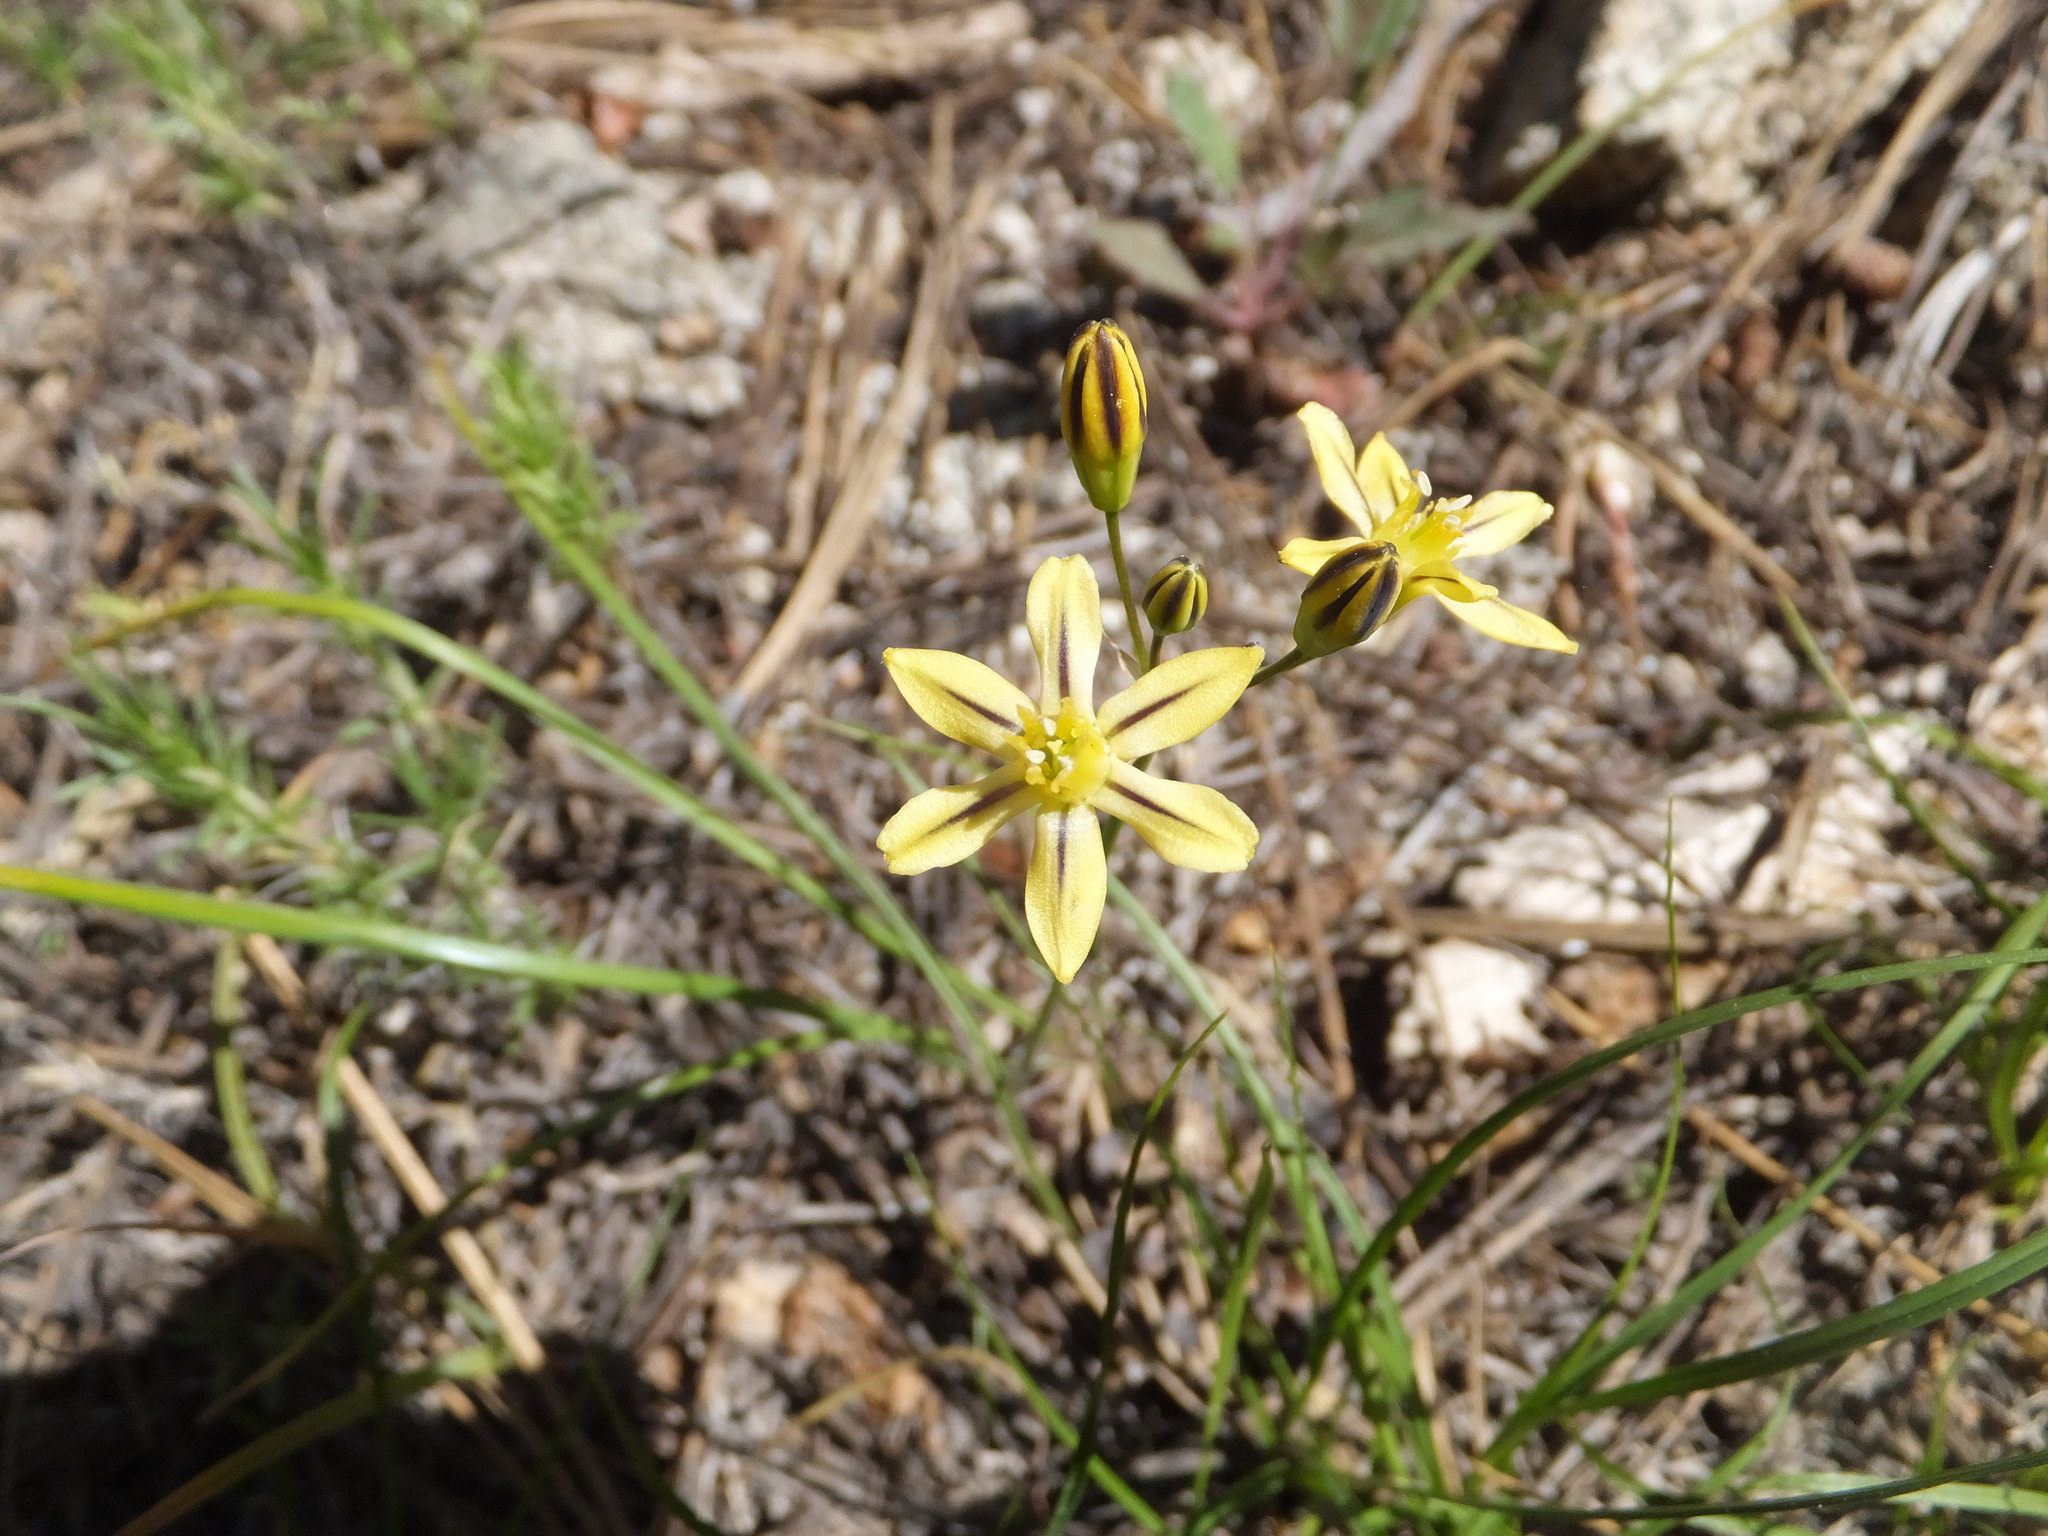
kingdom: Plantae
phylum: Tracheophyta
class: Liliopsida
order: Asparagales
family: Asparagaceae
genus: Triteleia
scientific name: Triteleia ixioides
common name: Yellow-brodiaea
